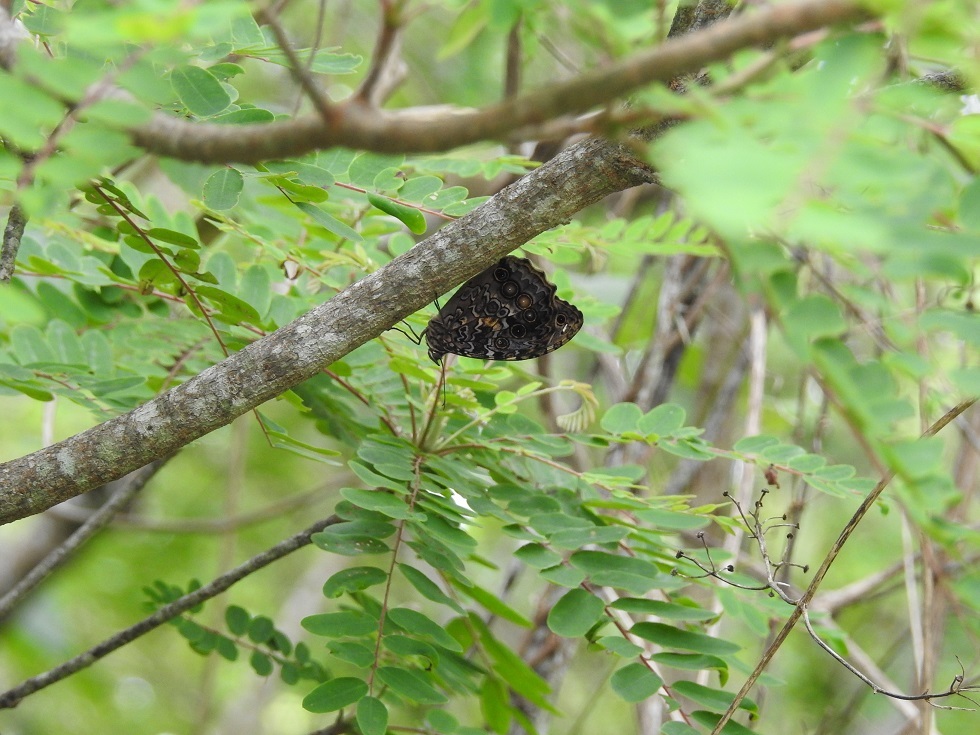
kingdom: Animalia
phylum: Arthropoda
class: Insecta
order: Lepidoptera
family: Nymphalidae
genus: Manataria
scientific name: Manataria maculata
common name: White-spotted satyr
